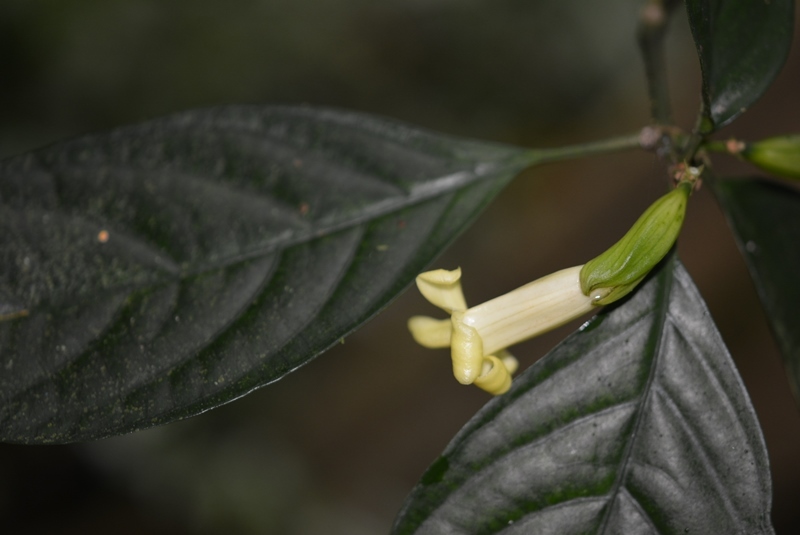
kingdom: Plantae
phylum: Tracheophyta
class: Magnoliopsida
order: Lamiales
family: Acanthaceae
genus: Spathacanthus
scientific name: Spathacanthus hahnianus
